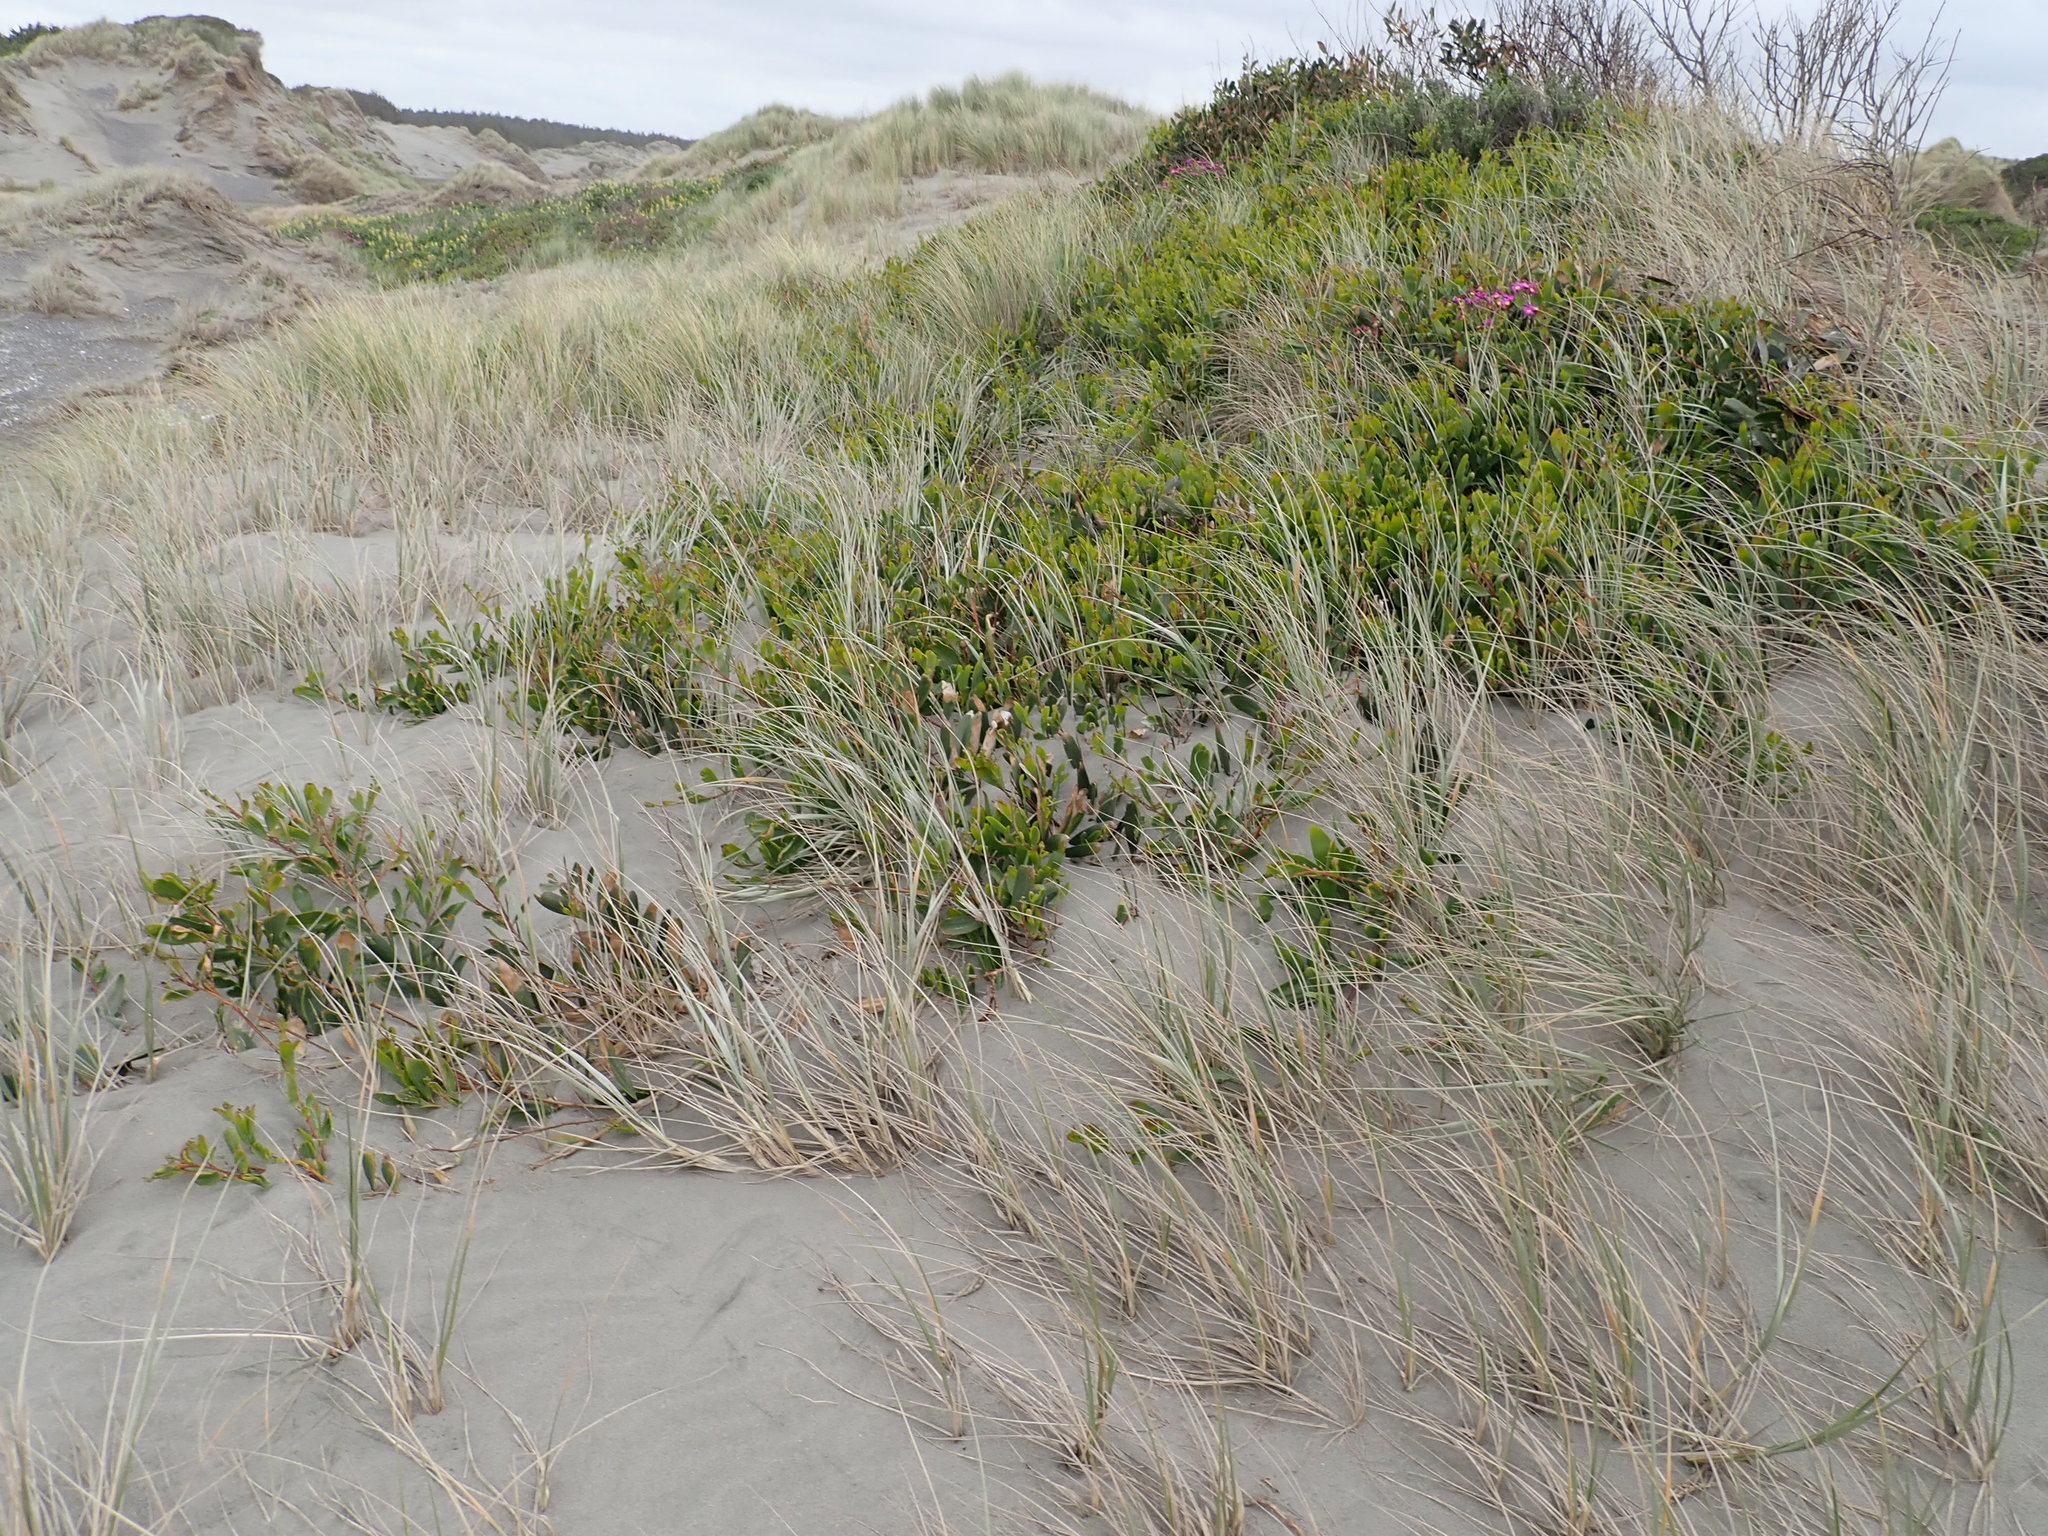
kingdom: Plantae
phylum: Tracheophyta
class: Magnoliopsida
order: Fabales
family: Fabaceae
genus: Acacia
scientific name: Acacia longifolia
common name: Sydney golden wattle
